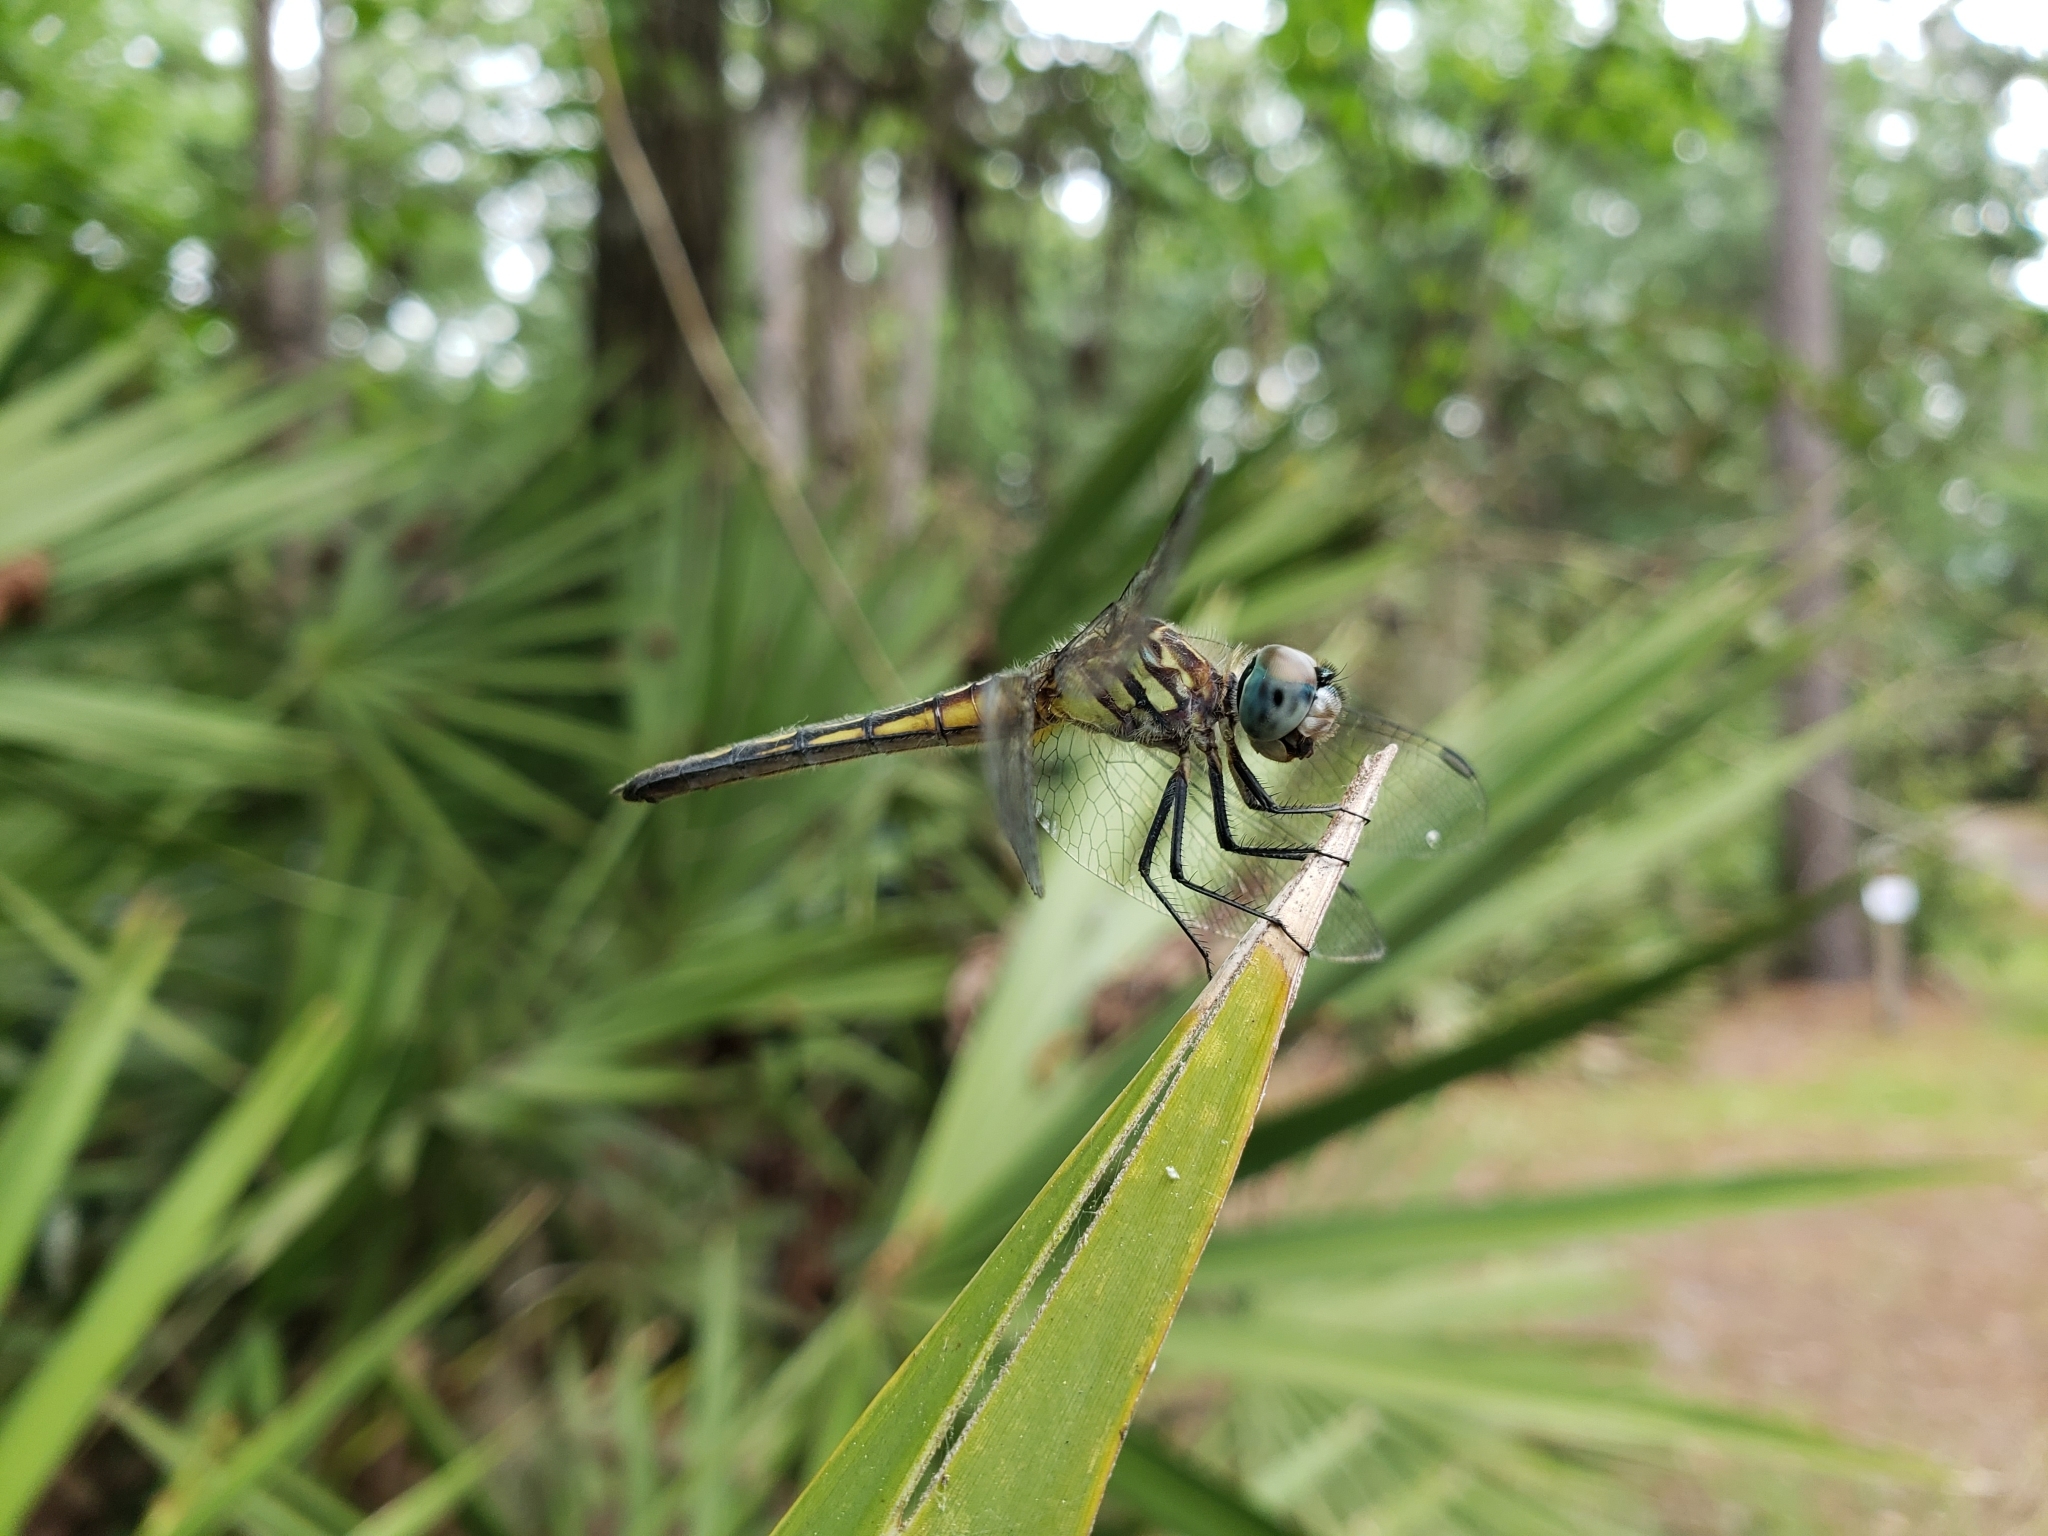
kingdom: Animalia
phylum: Arthropoda
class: Insecta
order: Odonata
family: Libellulidae
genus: Pachydiplax
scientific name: Pachydiplax longipennis
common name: Blue dasher
